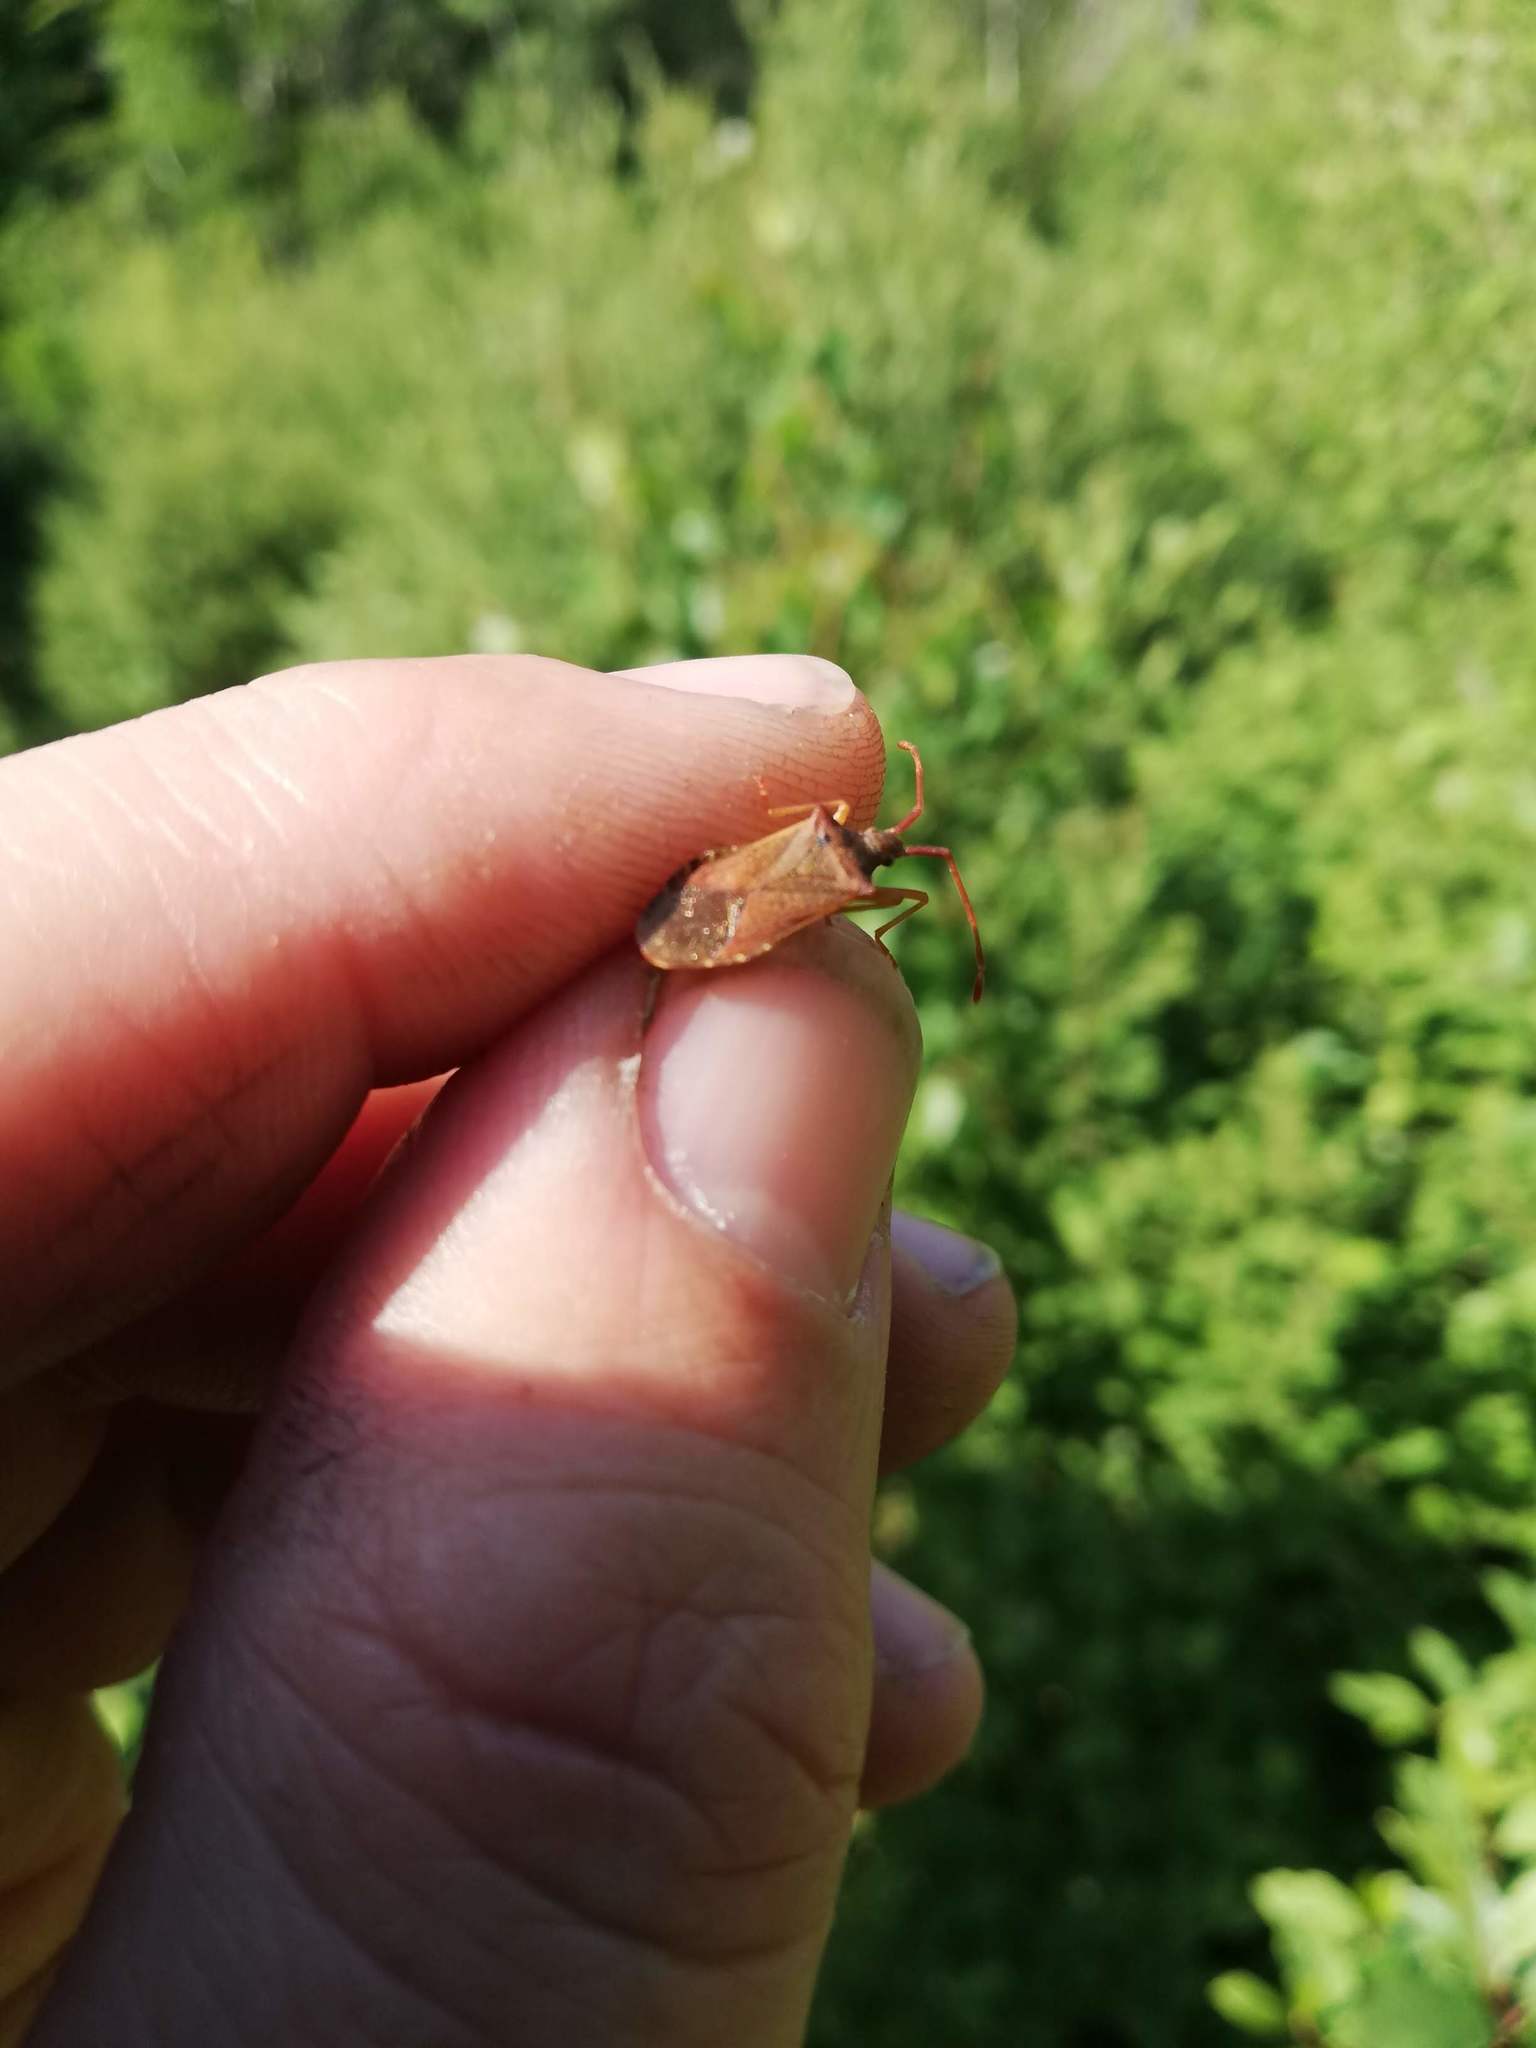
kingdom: Animalia
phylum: Arthropoda
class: Insecta
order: Hemiptera
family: Coreidae
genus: Gonocerus
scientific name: Gonocerus acuteangulatus
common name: Box bug
